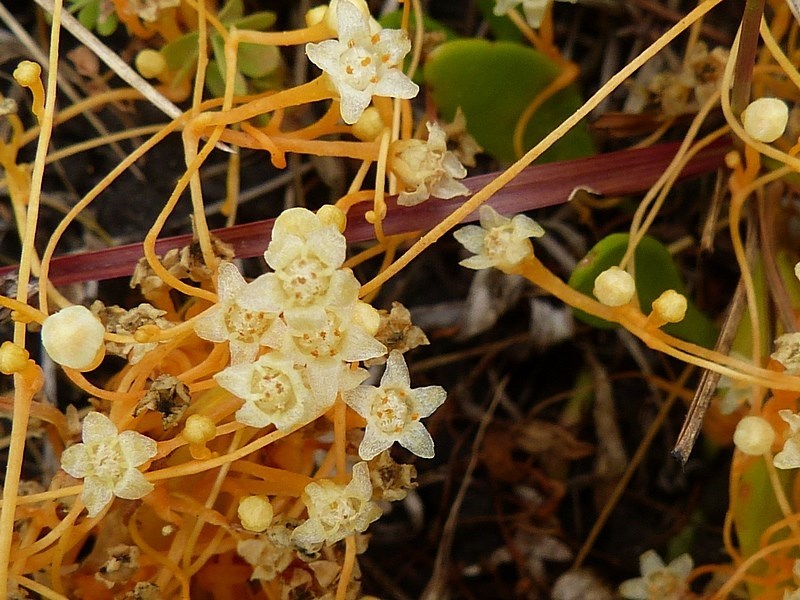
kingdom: Plantae
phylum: Tracheophyta
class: Magnoliopsida
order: Solanales
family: Convolvulaceae
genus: Cuscuta
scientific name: Cuscuta tasmanica
